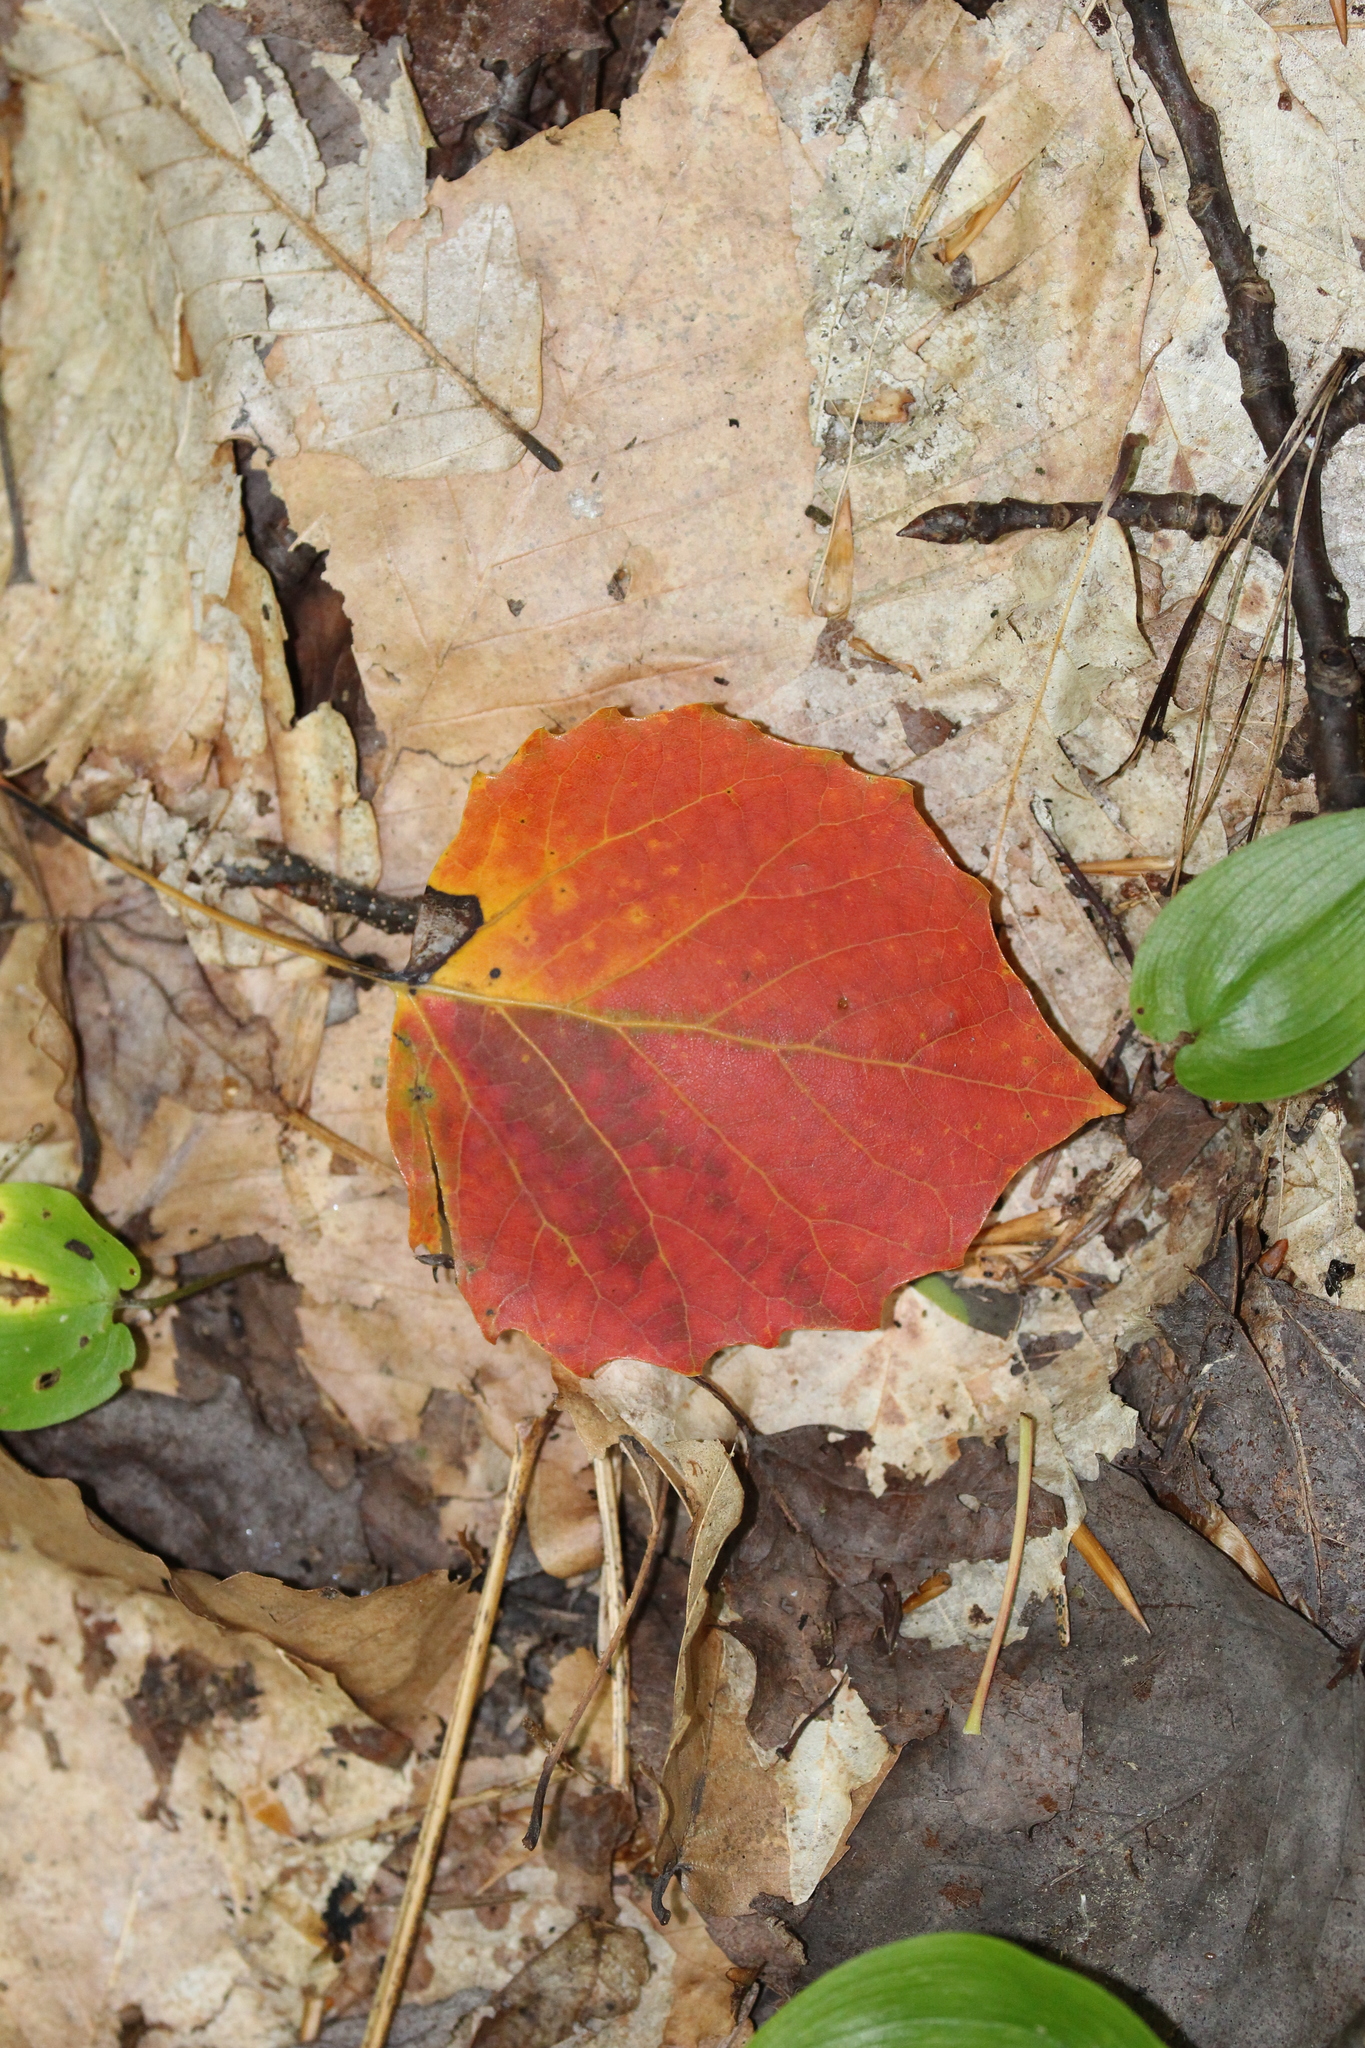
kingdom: Plantae
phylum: Tracheophyta
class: Magnoliopsida
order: Malpighiales
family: Salicaceae
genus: Populus
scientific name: Populus grandidentata
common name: Bigtooth aspen
